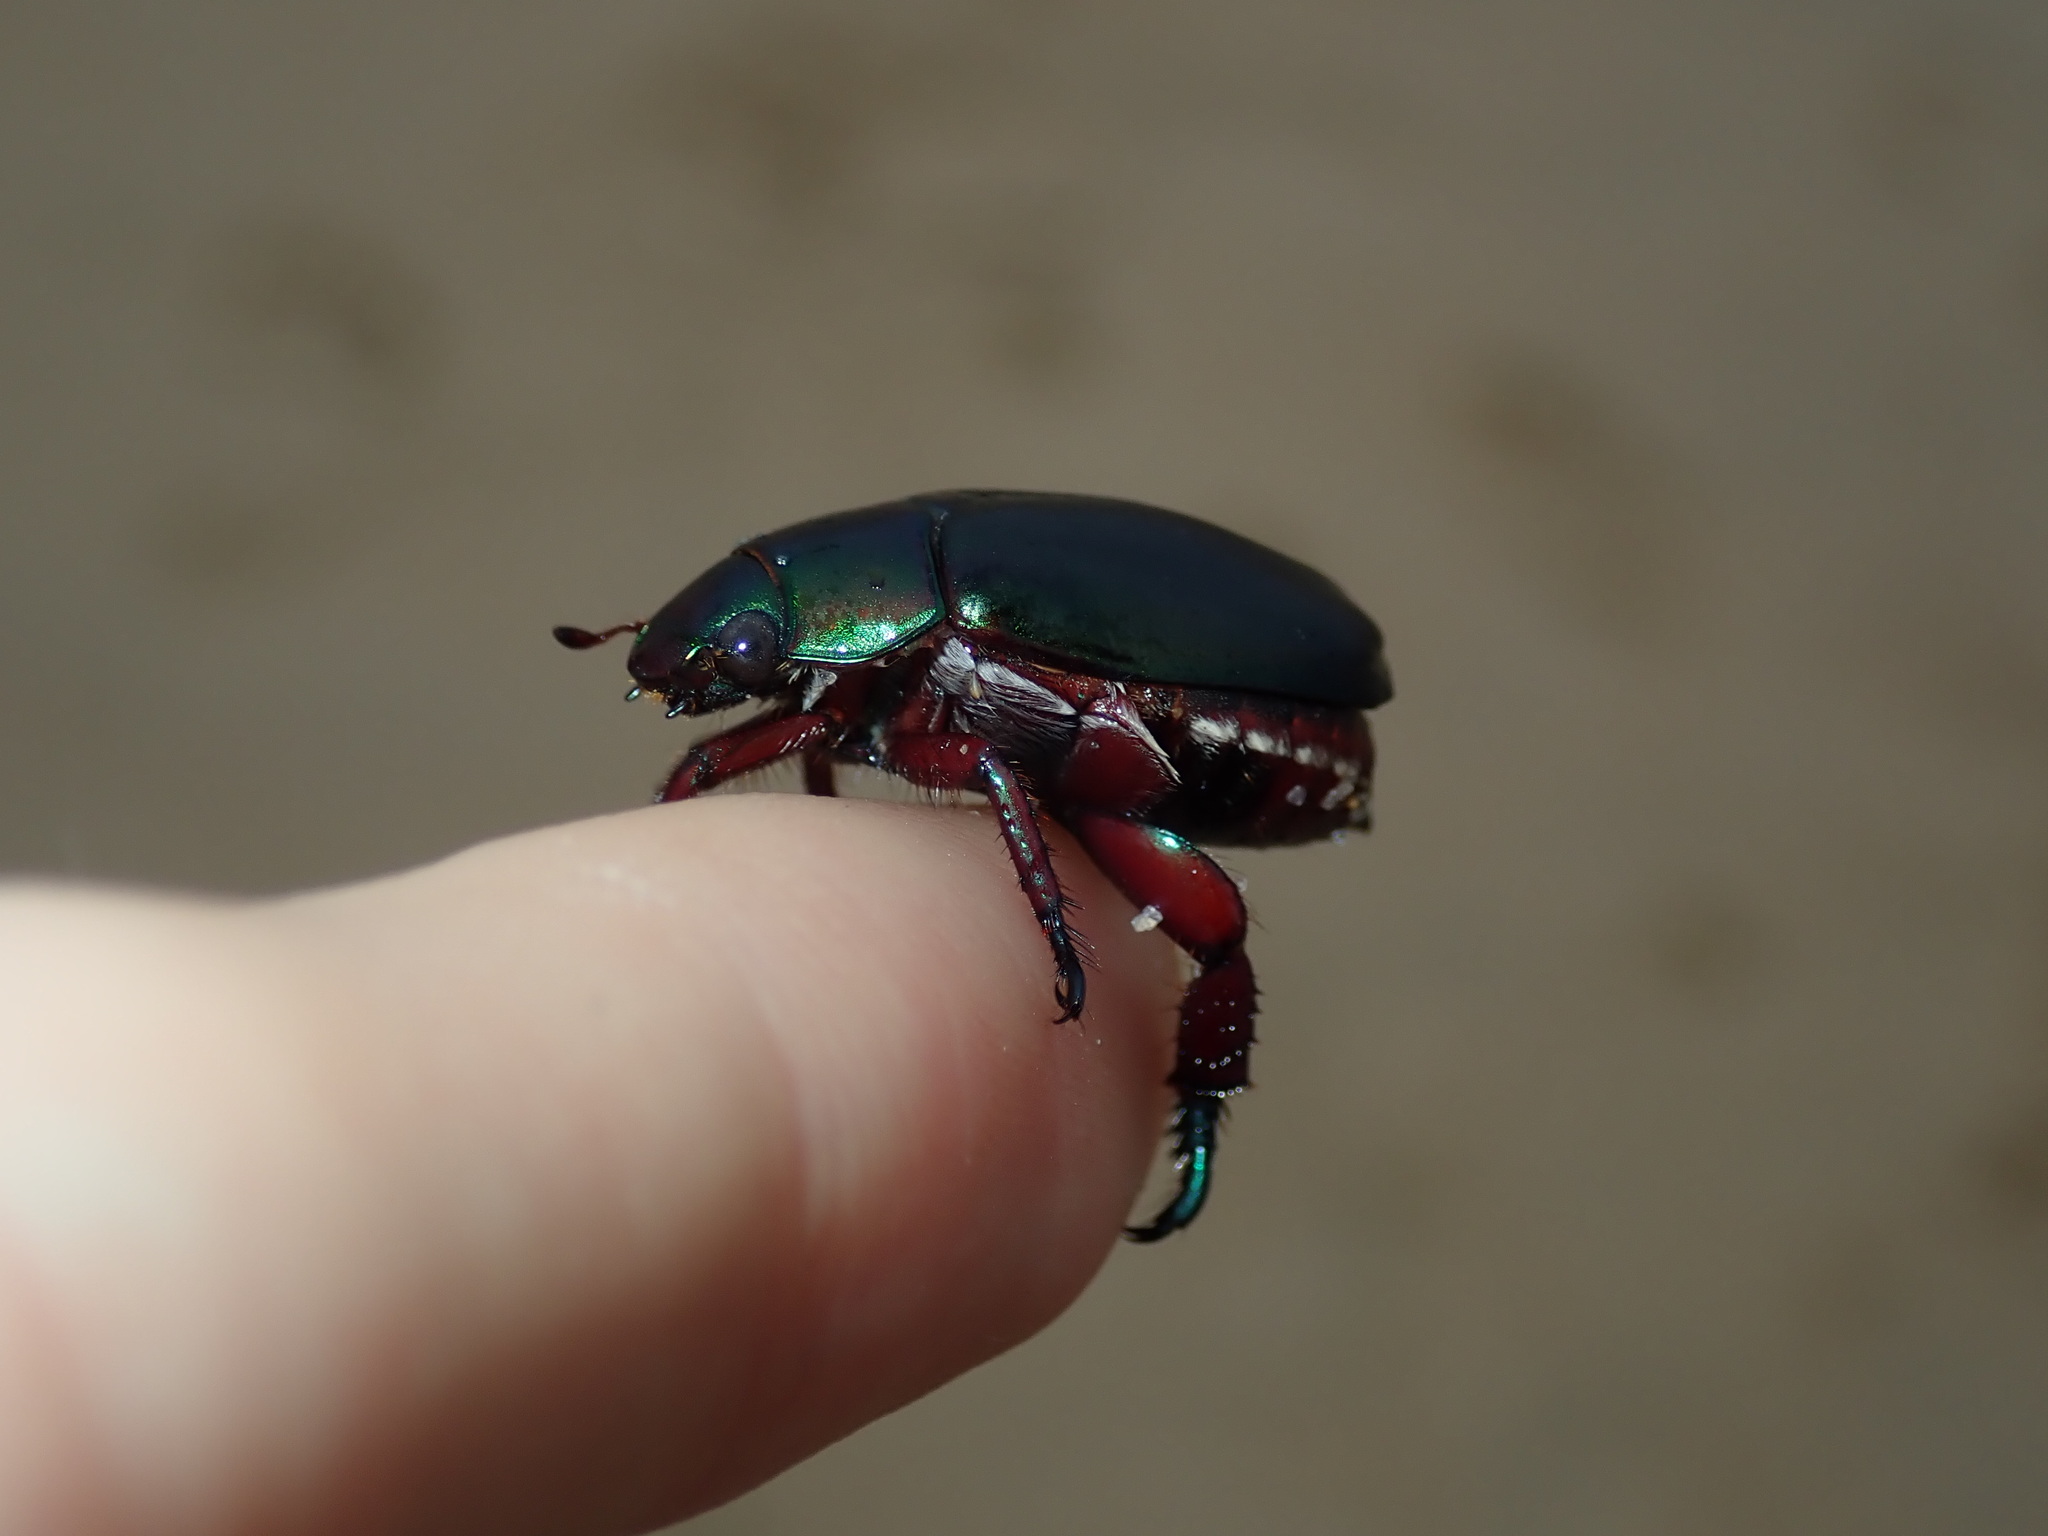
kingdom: Animalia
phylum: Arthropoda
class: Insecta
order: Coleoptera
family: Scarabaeidae
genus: Repsimus
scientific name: Repsimus aeneus
